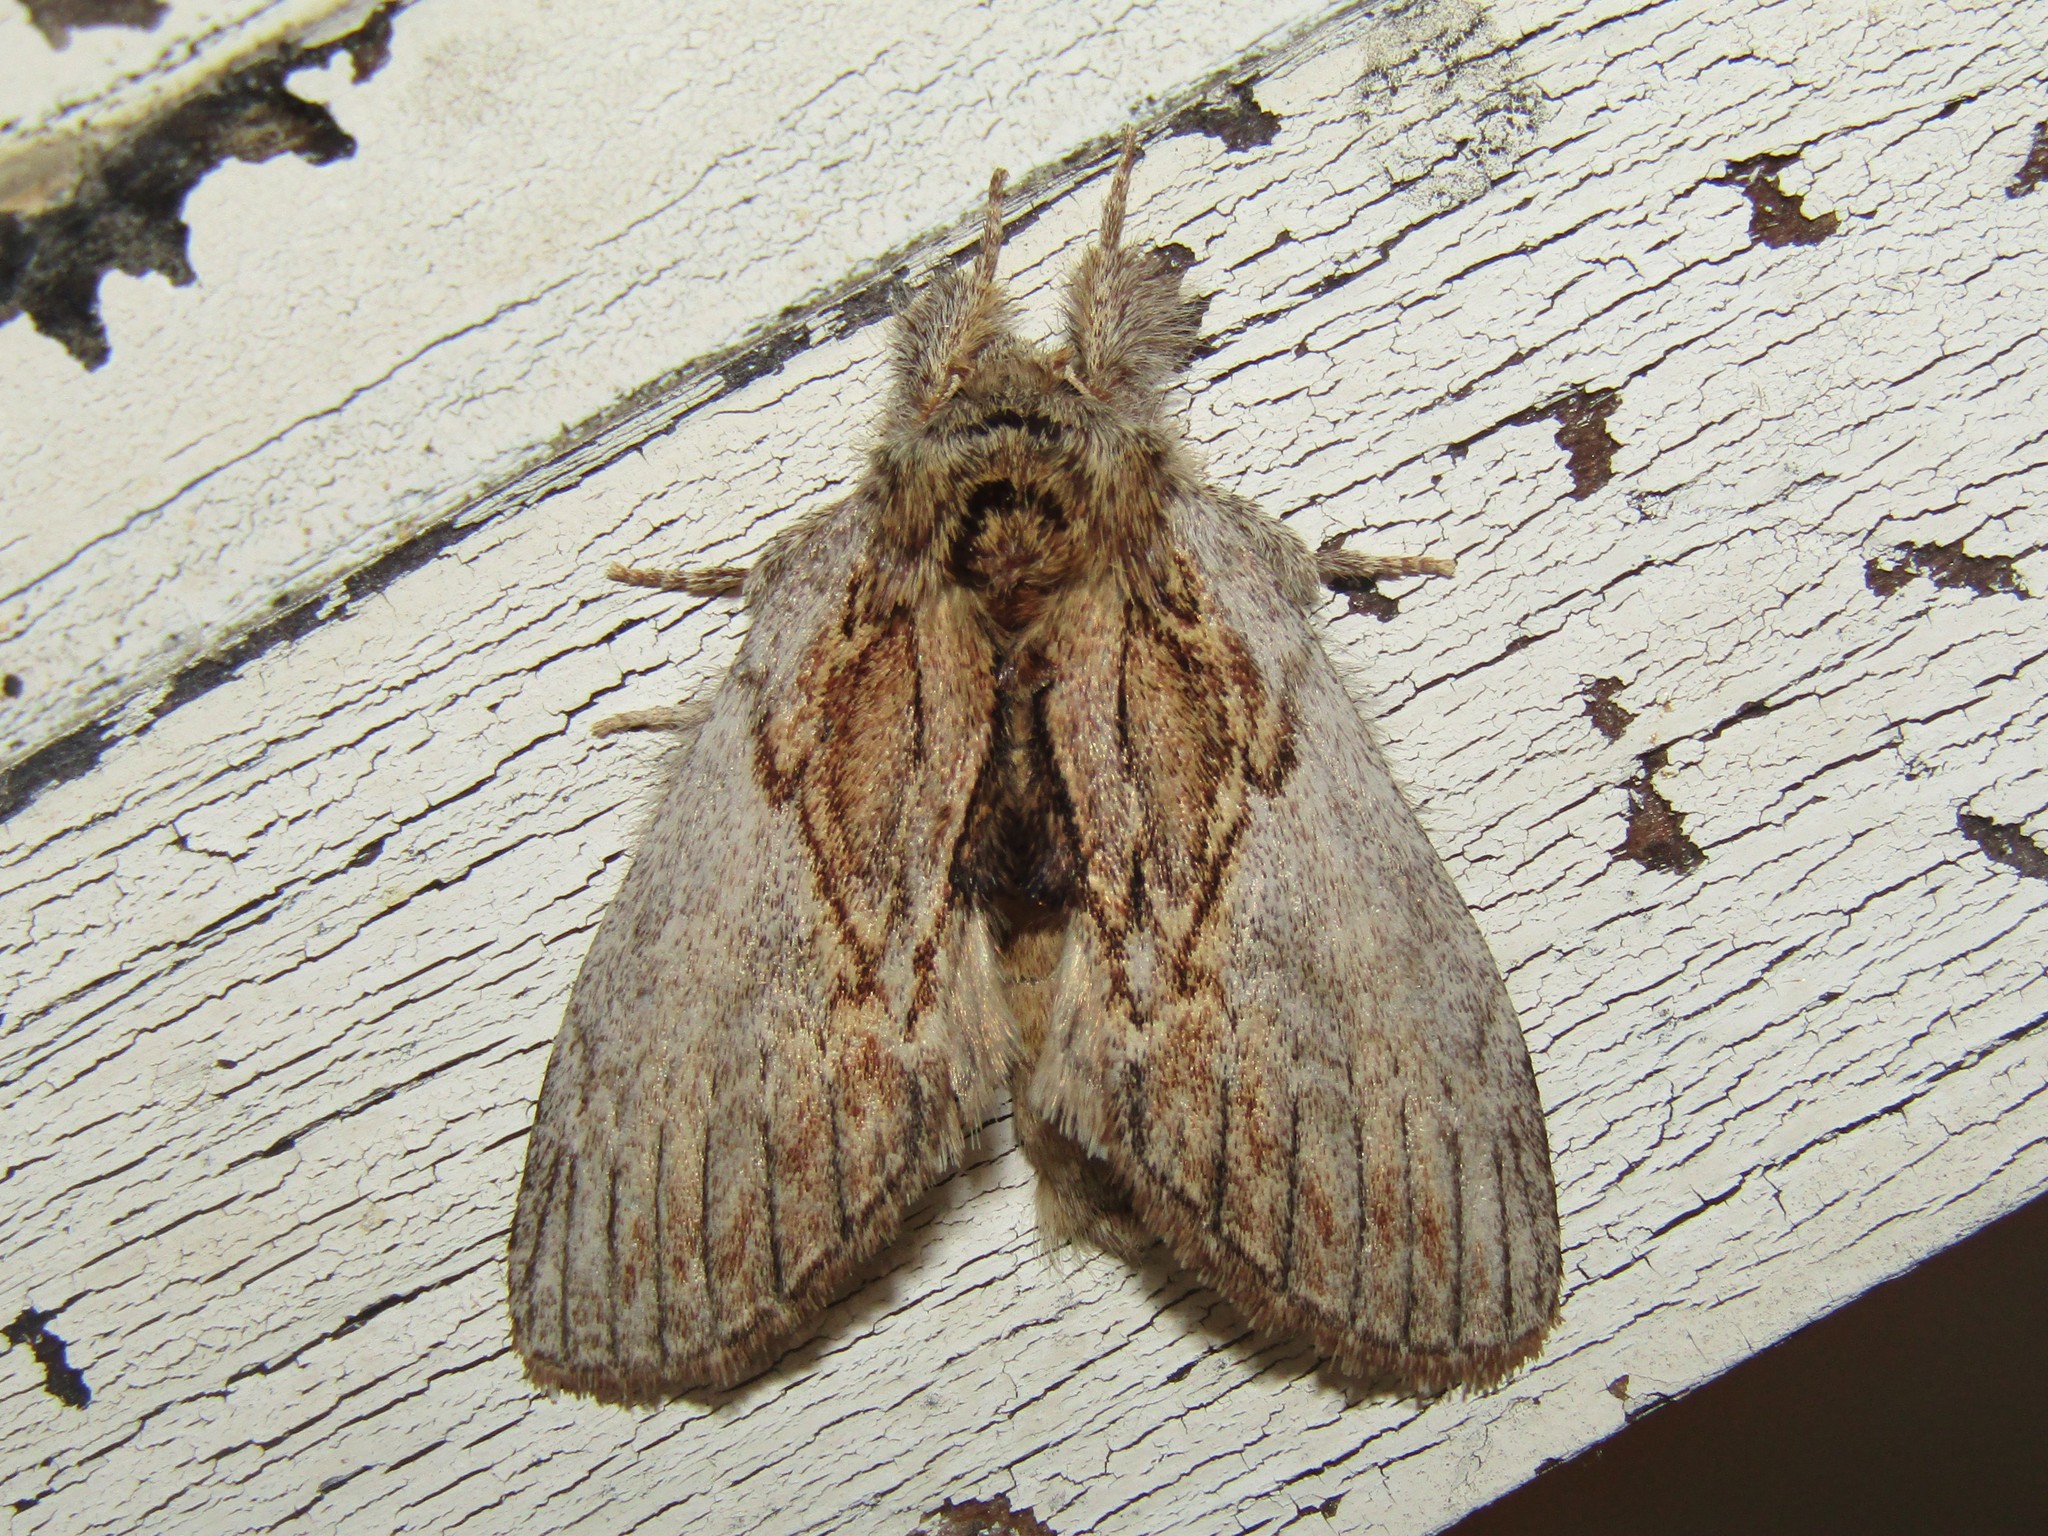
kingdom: Animalia
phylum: Arthropoda
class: Insecta
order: Lepidoptera
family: Notodontidae
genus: Peridea
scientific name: Peridea basitriens
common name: Oval-based prominent
